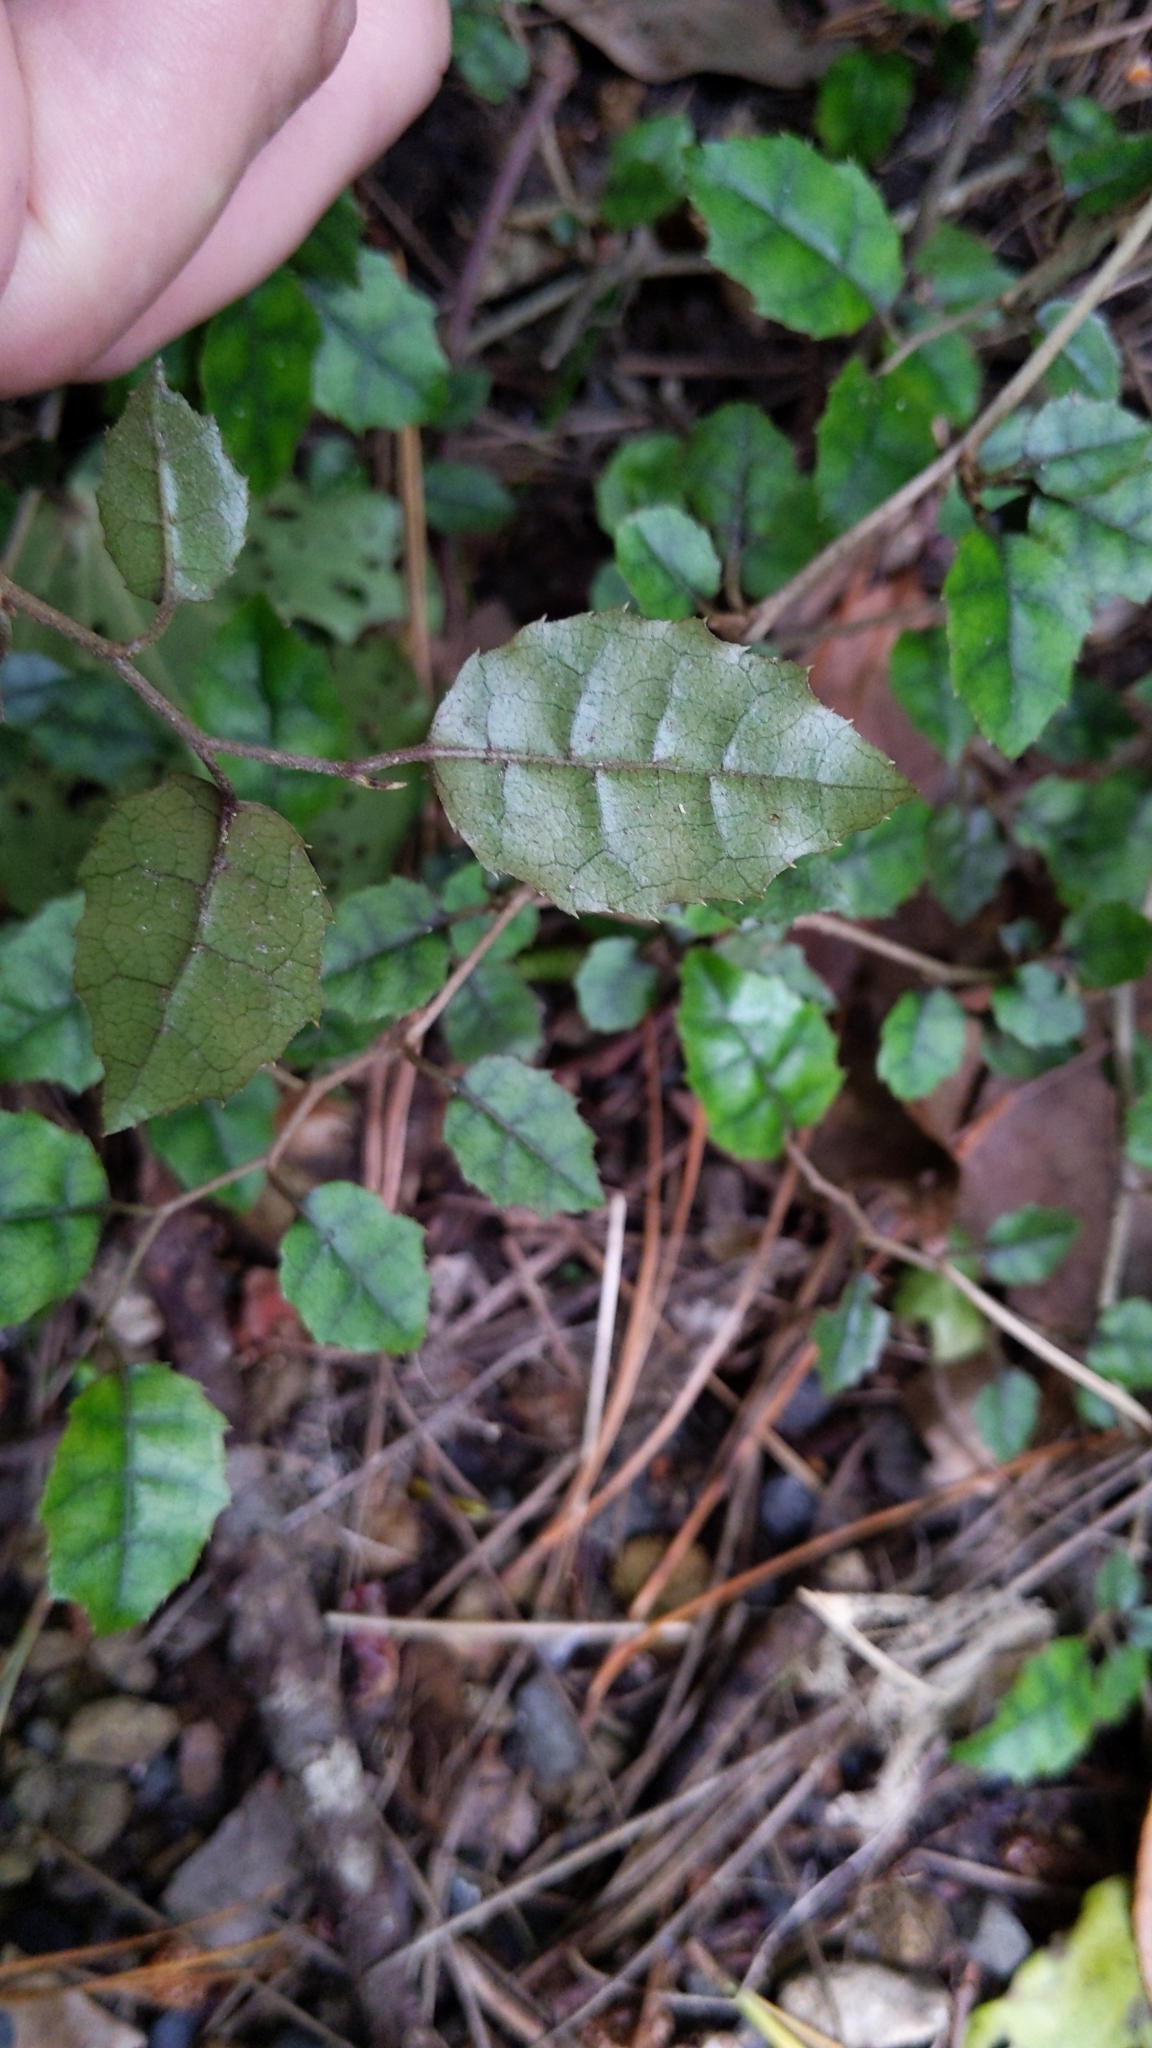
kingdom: Plantae
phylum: Tracheophyta
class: Magnoliopsida
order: Asterales
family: Rousseaceae
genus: Carpodetus
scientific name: Carpodetus serratus
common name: White mapau
